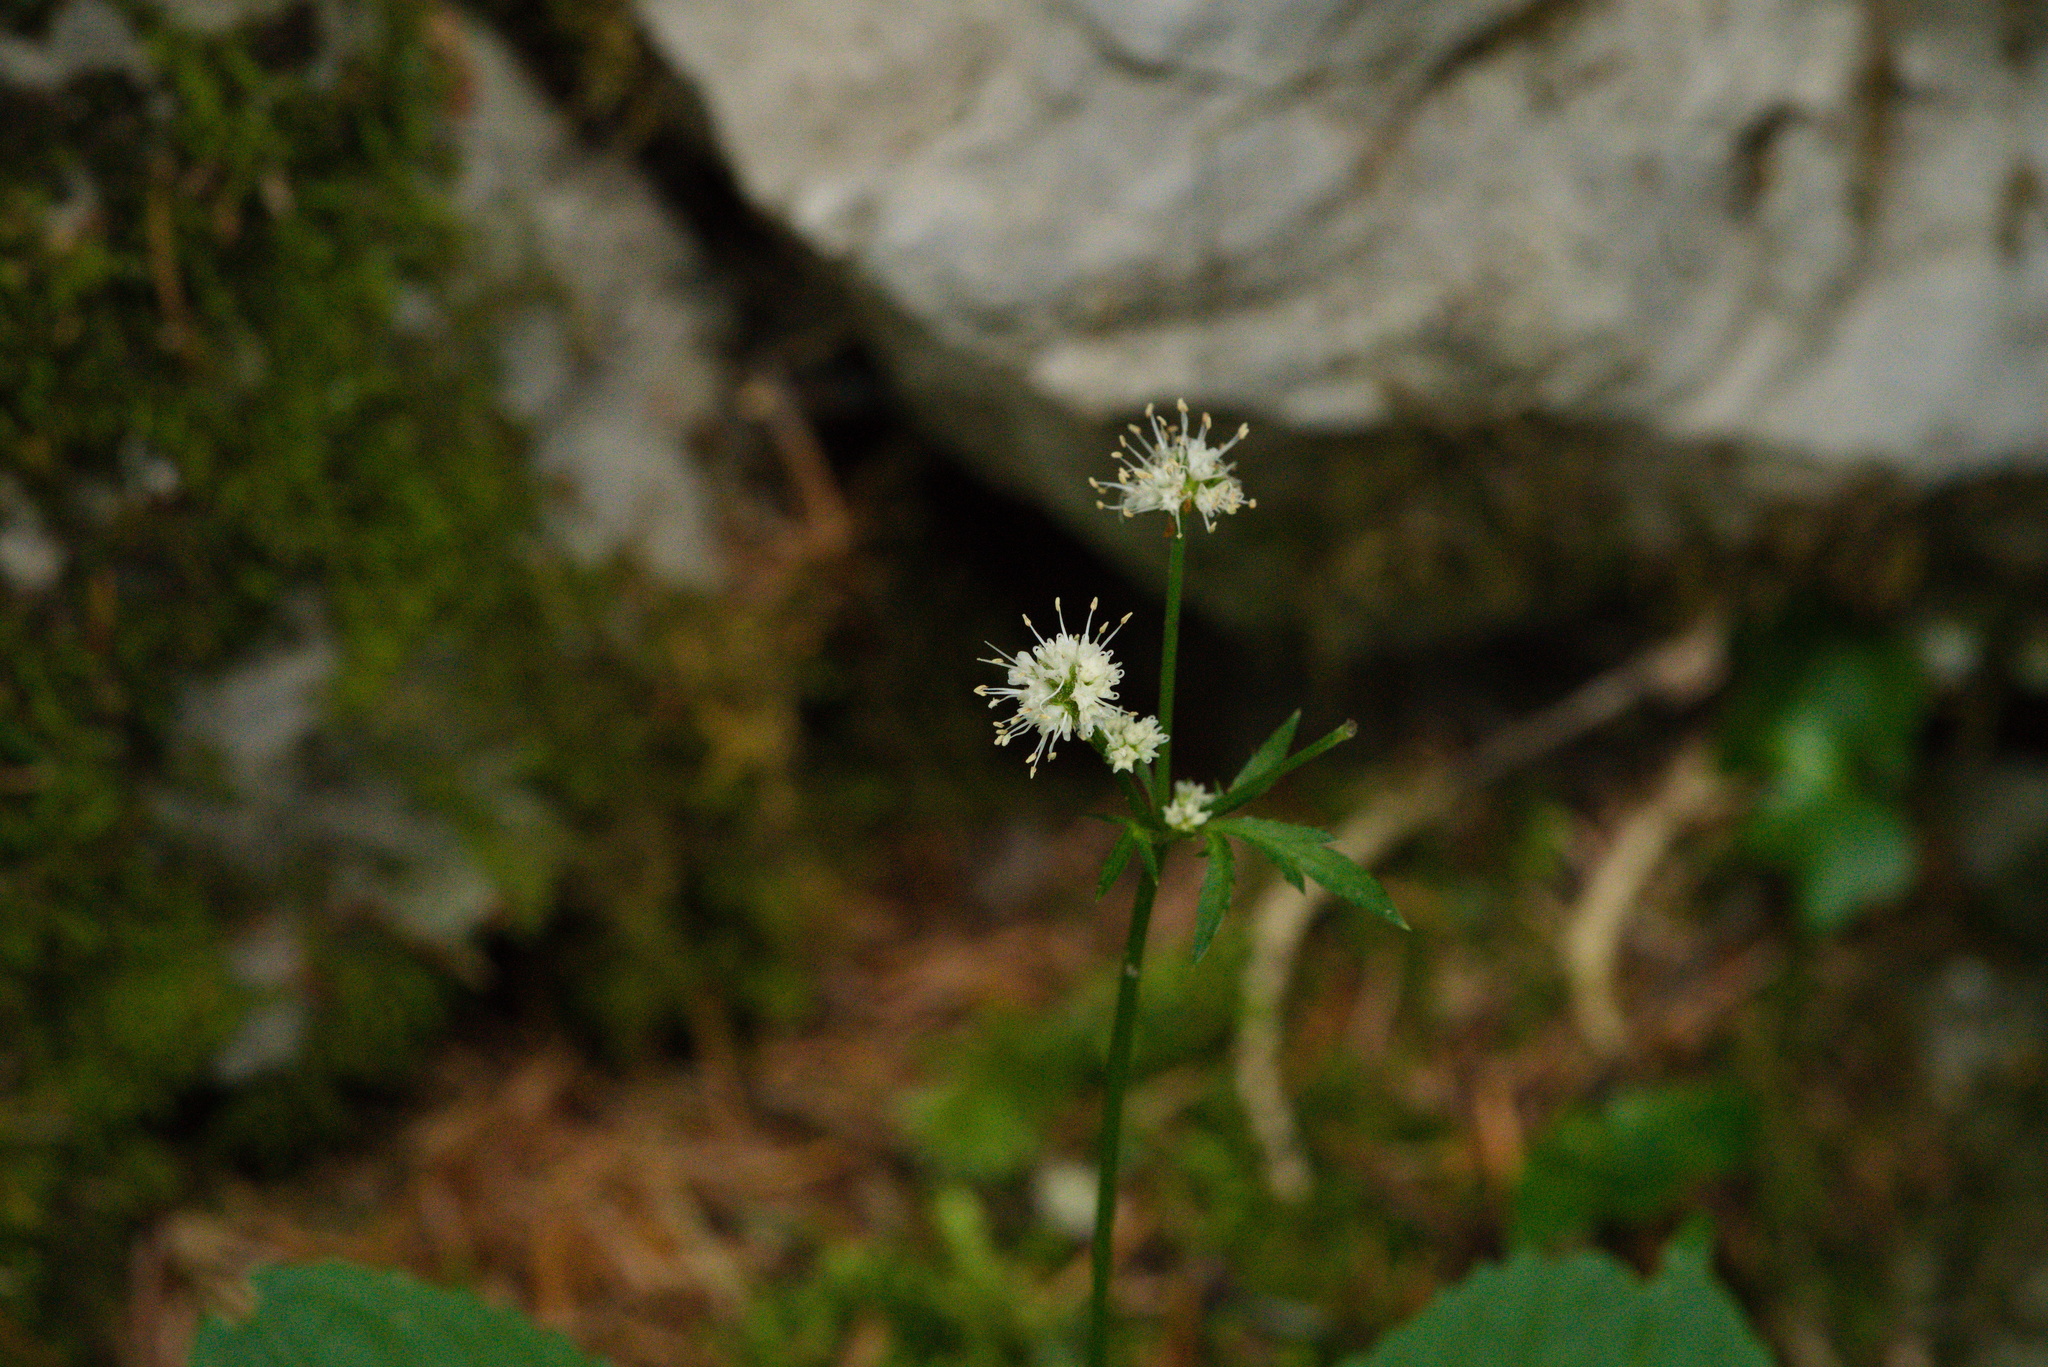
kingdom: Plantae
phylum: Tracheophyta
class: Magnoliopsida
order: Apiales
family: Apiaceae
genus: Sanicula
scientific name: Sanicula europaea
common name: Sanicle
